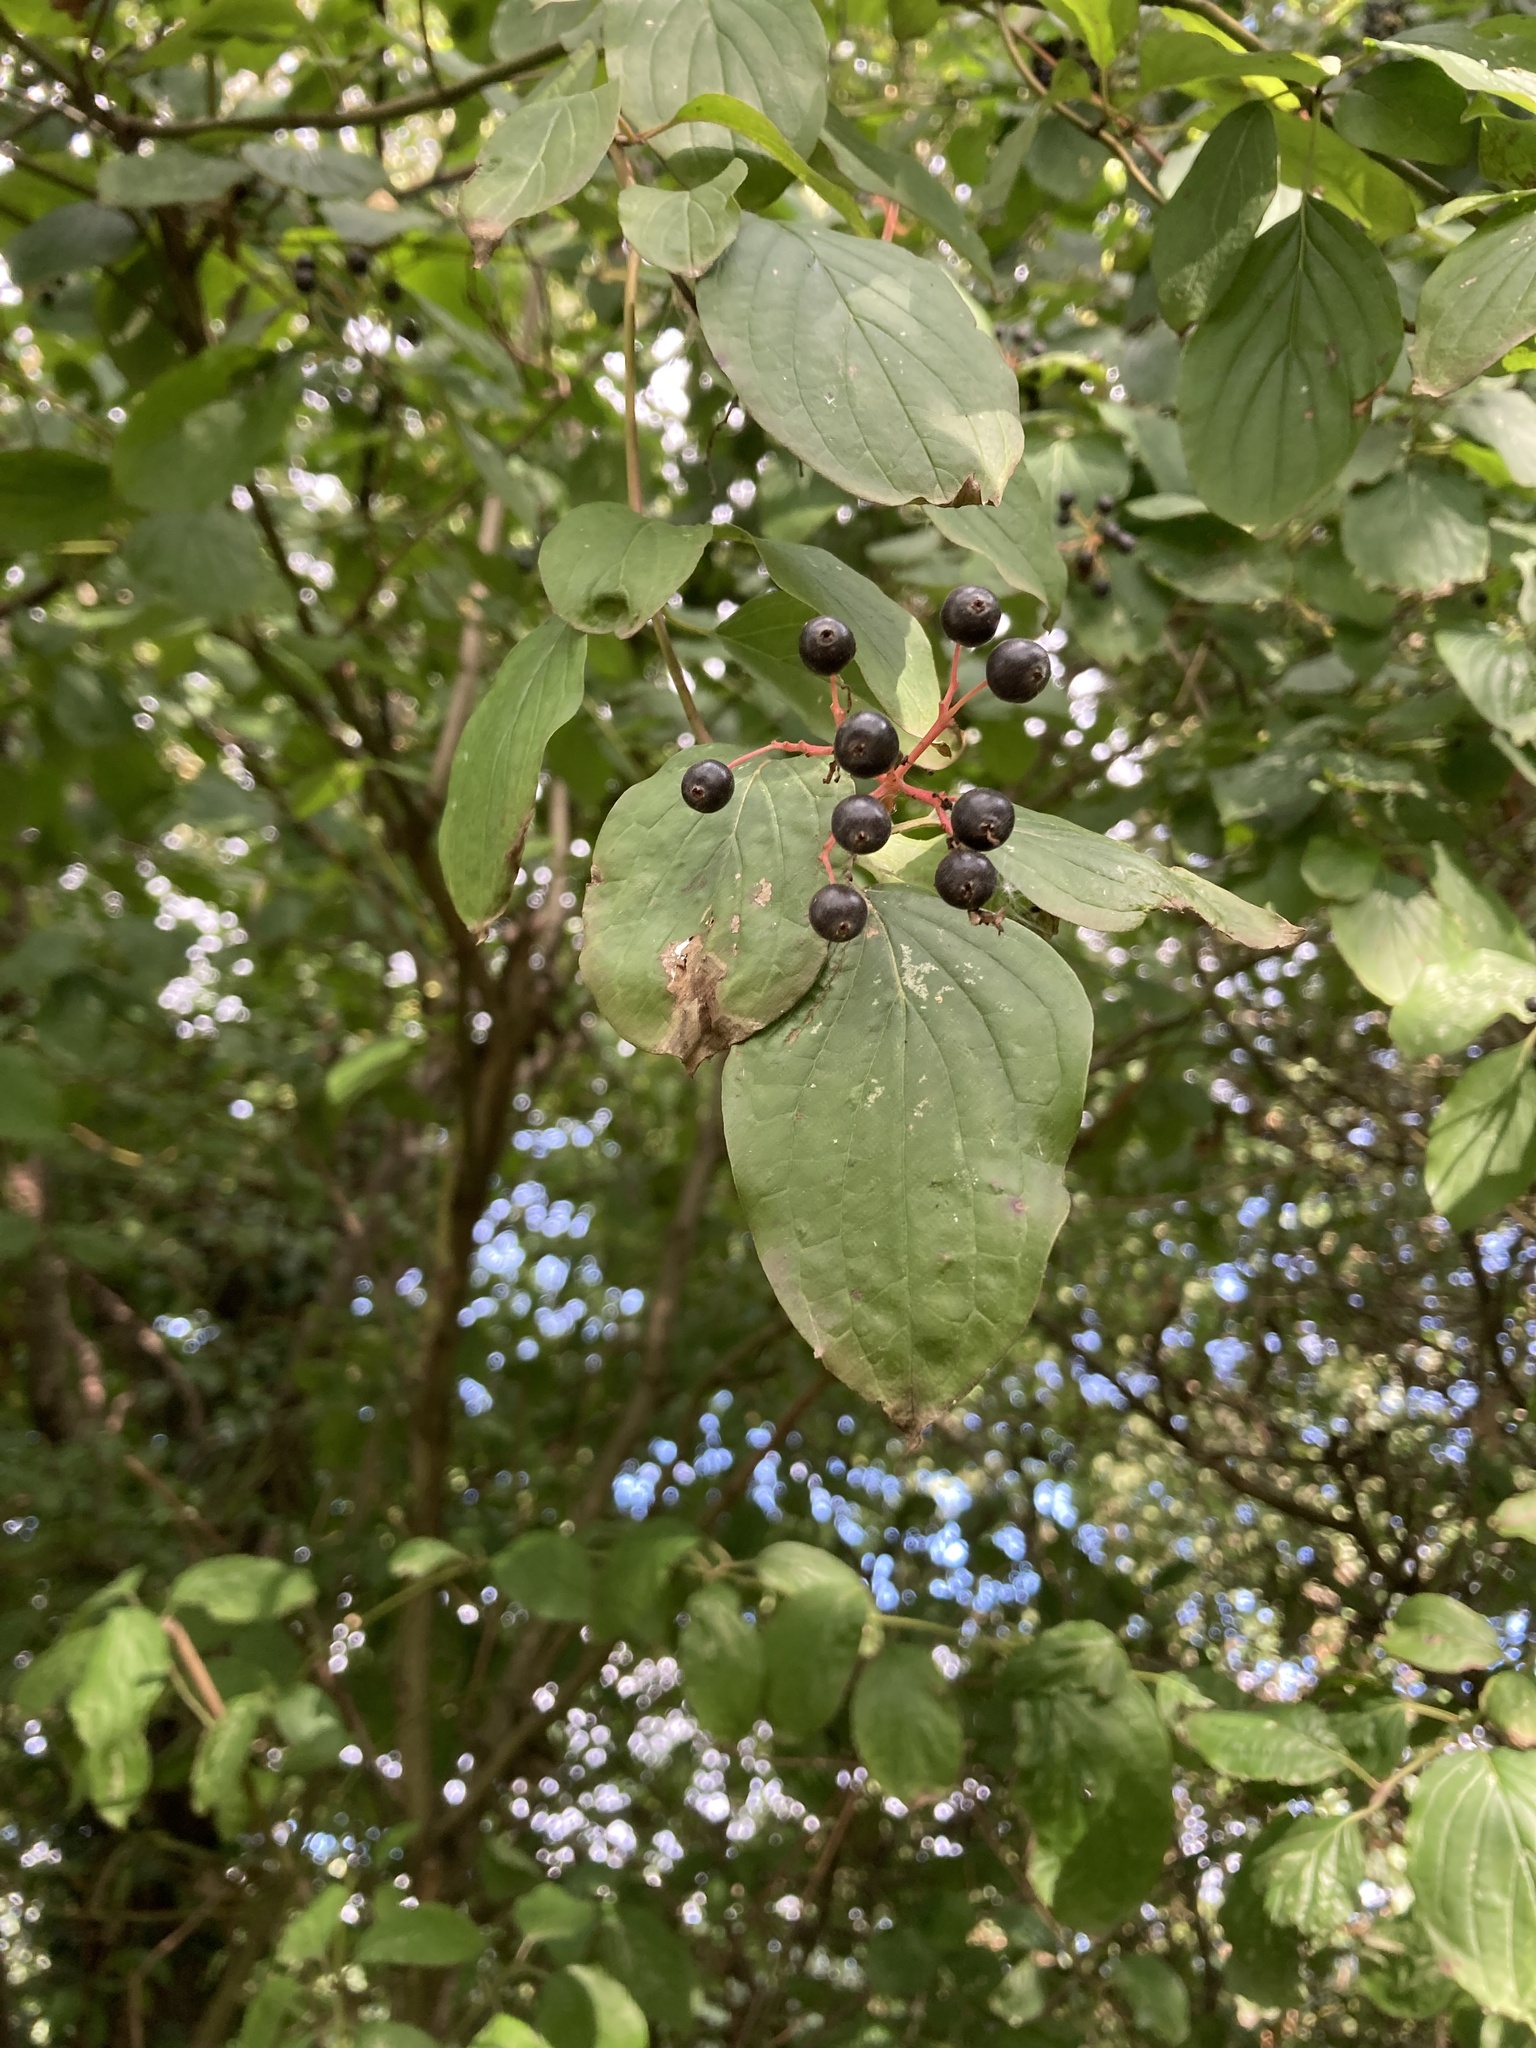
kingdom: Plantae
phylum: Tracheophyta
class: Magnoliopsida
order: Cornales
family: Cornaceae
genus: Cornus
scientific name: Cornus sanguinea
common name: Dogwood
